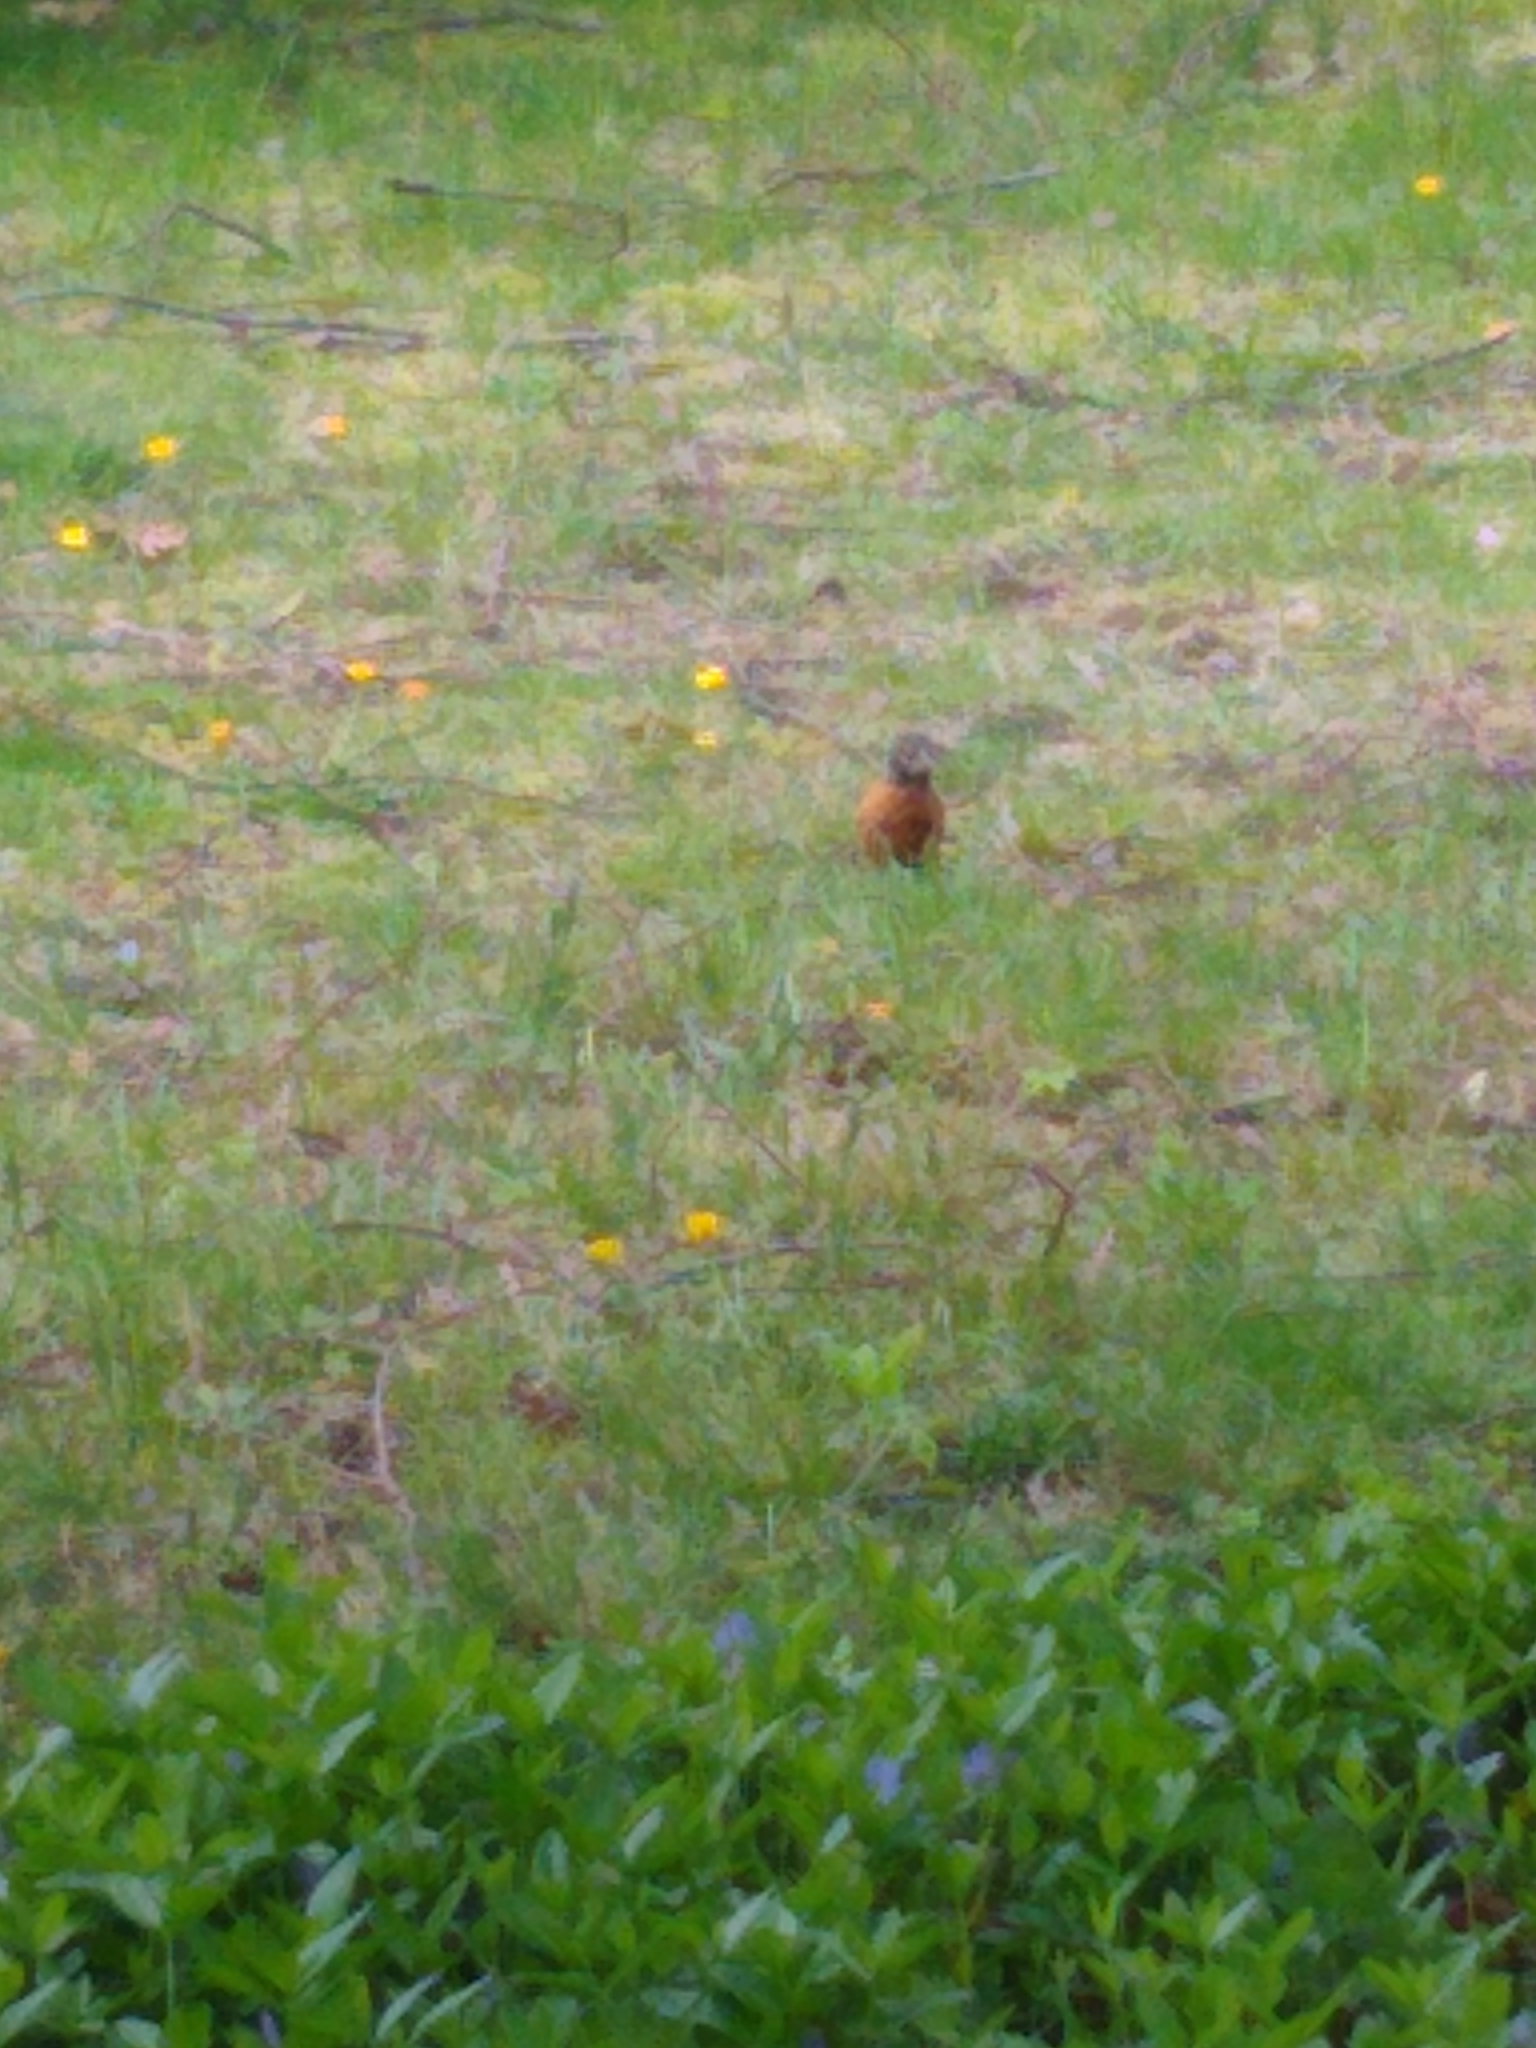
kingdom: Animalia
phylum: Chordata
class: Aves
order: Passeriformes
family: Turdidae
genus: Turdus
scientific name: Turdus migratorius
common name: American robin
